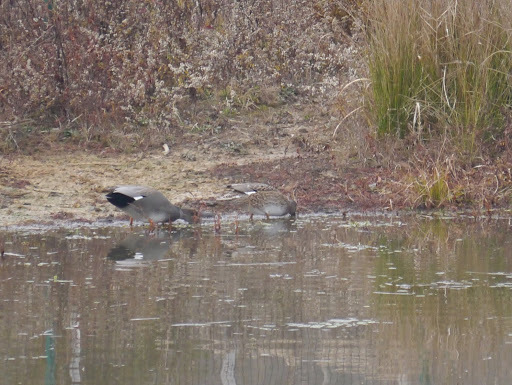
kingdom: Animalia
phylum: Chordata
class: Aves
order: Anseriformes
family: Anatidae
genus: Mareca
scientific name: Mareca strepera
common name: Gadwall
